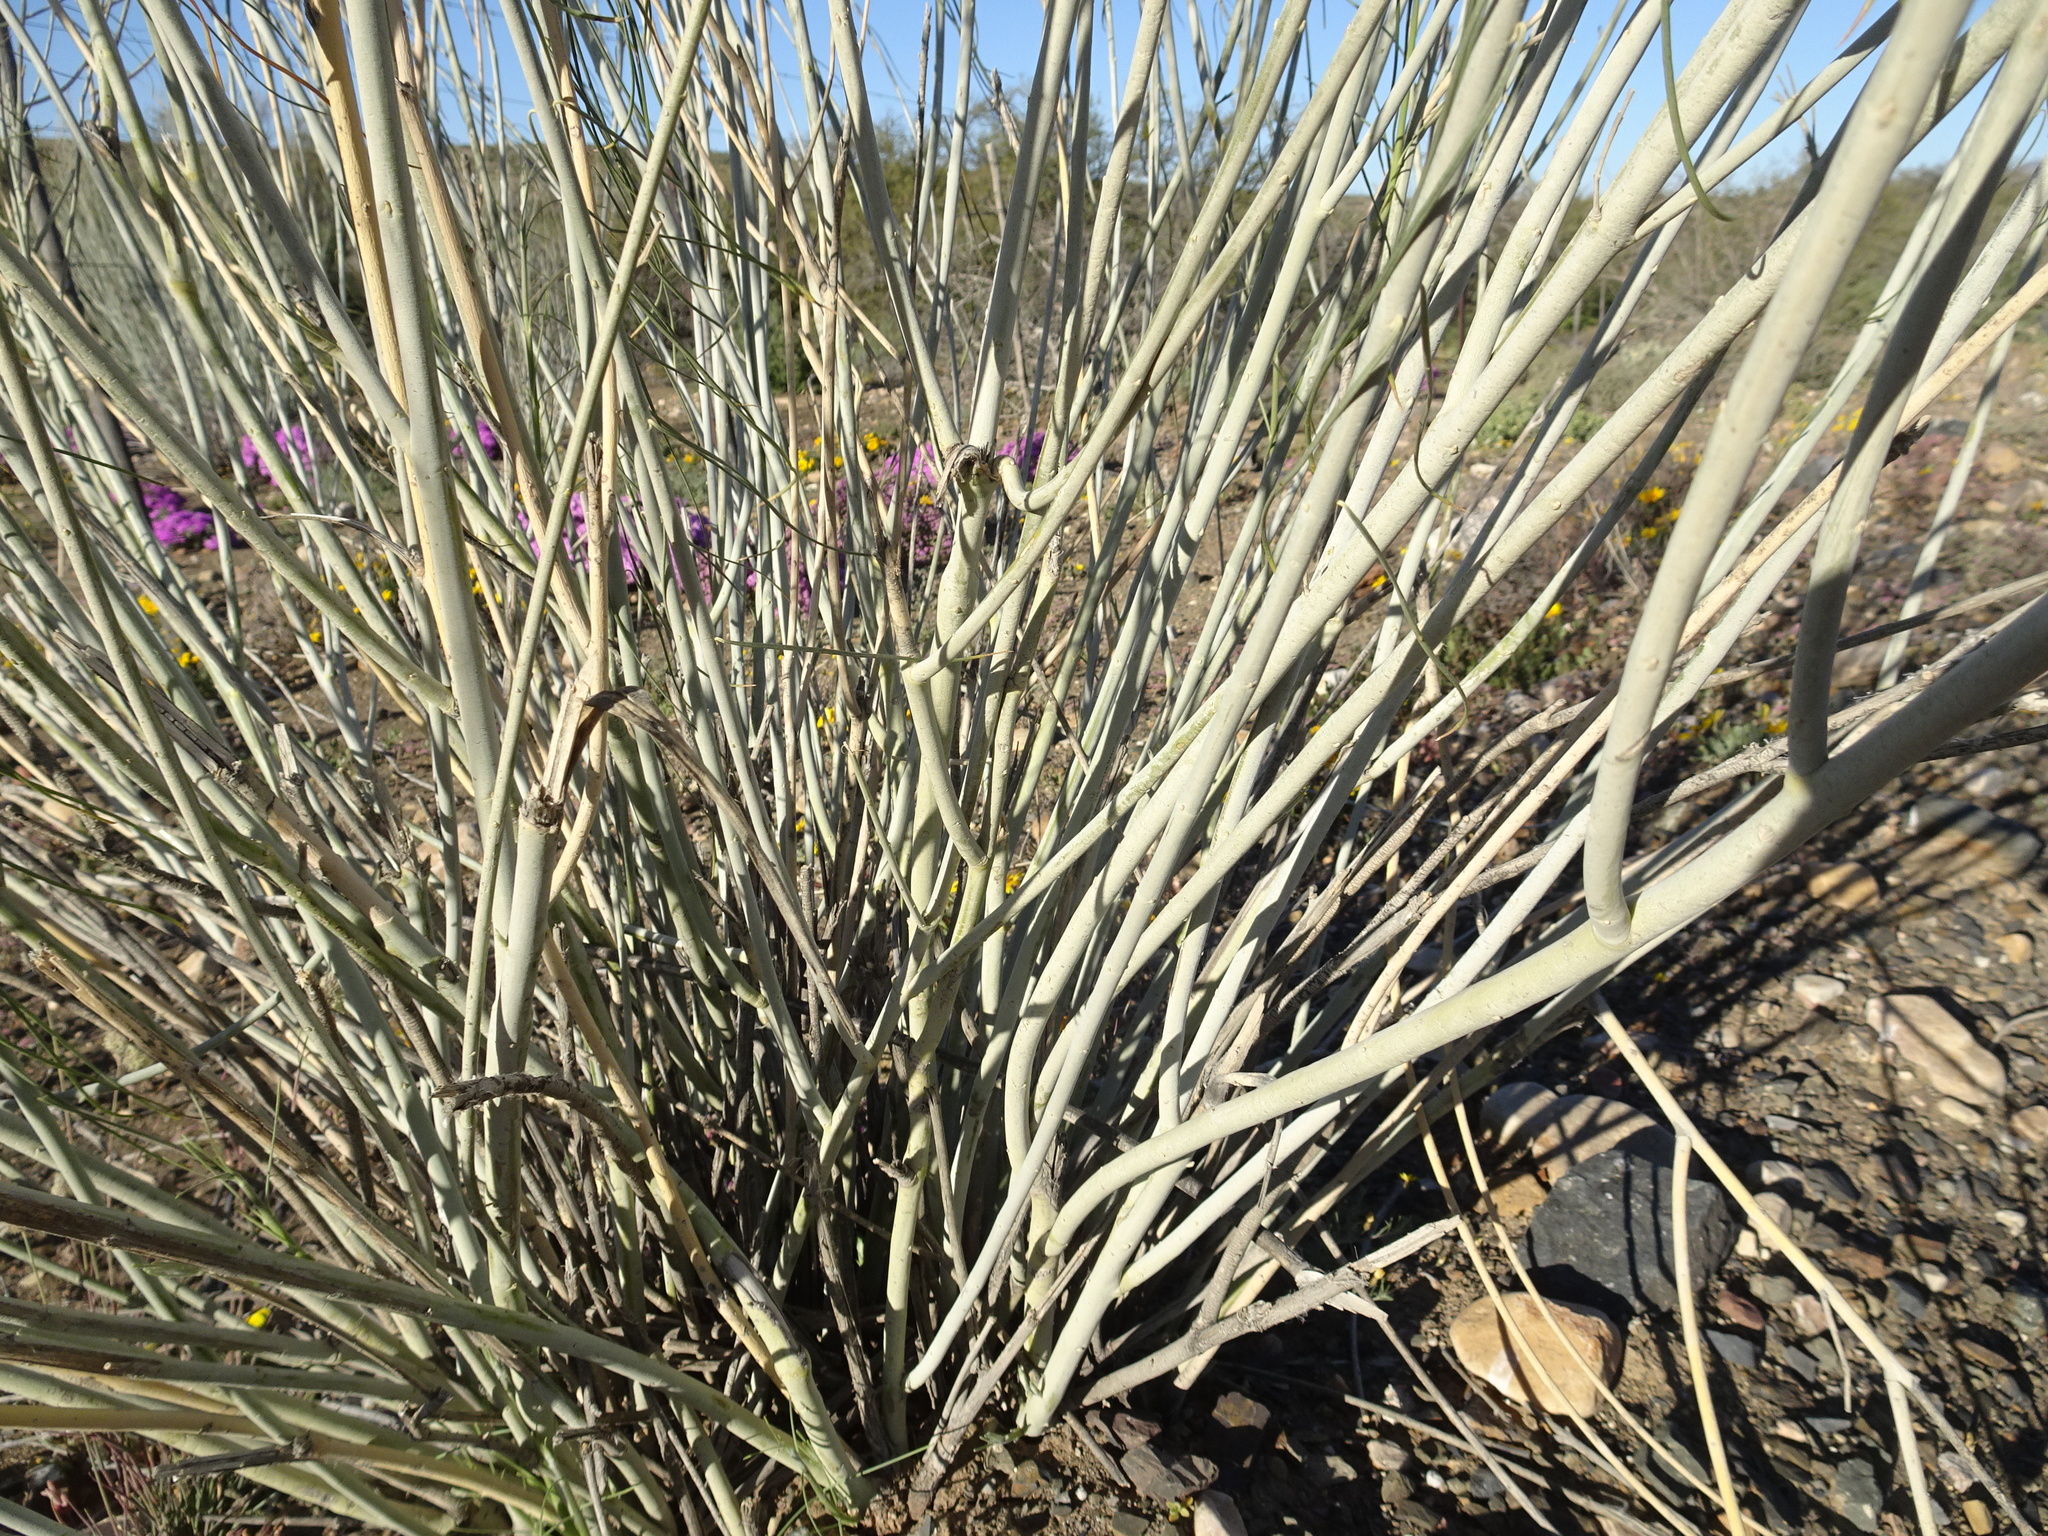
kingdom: Plantae
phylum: Tracheophyta
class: Magnoliopsida
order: Gentianales
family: Apocynaceae
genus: Gomphocarpus
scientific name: Gomphocarpus filiformis
